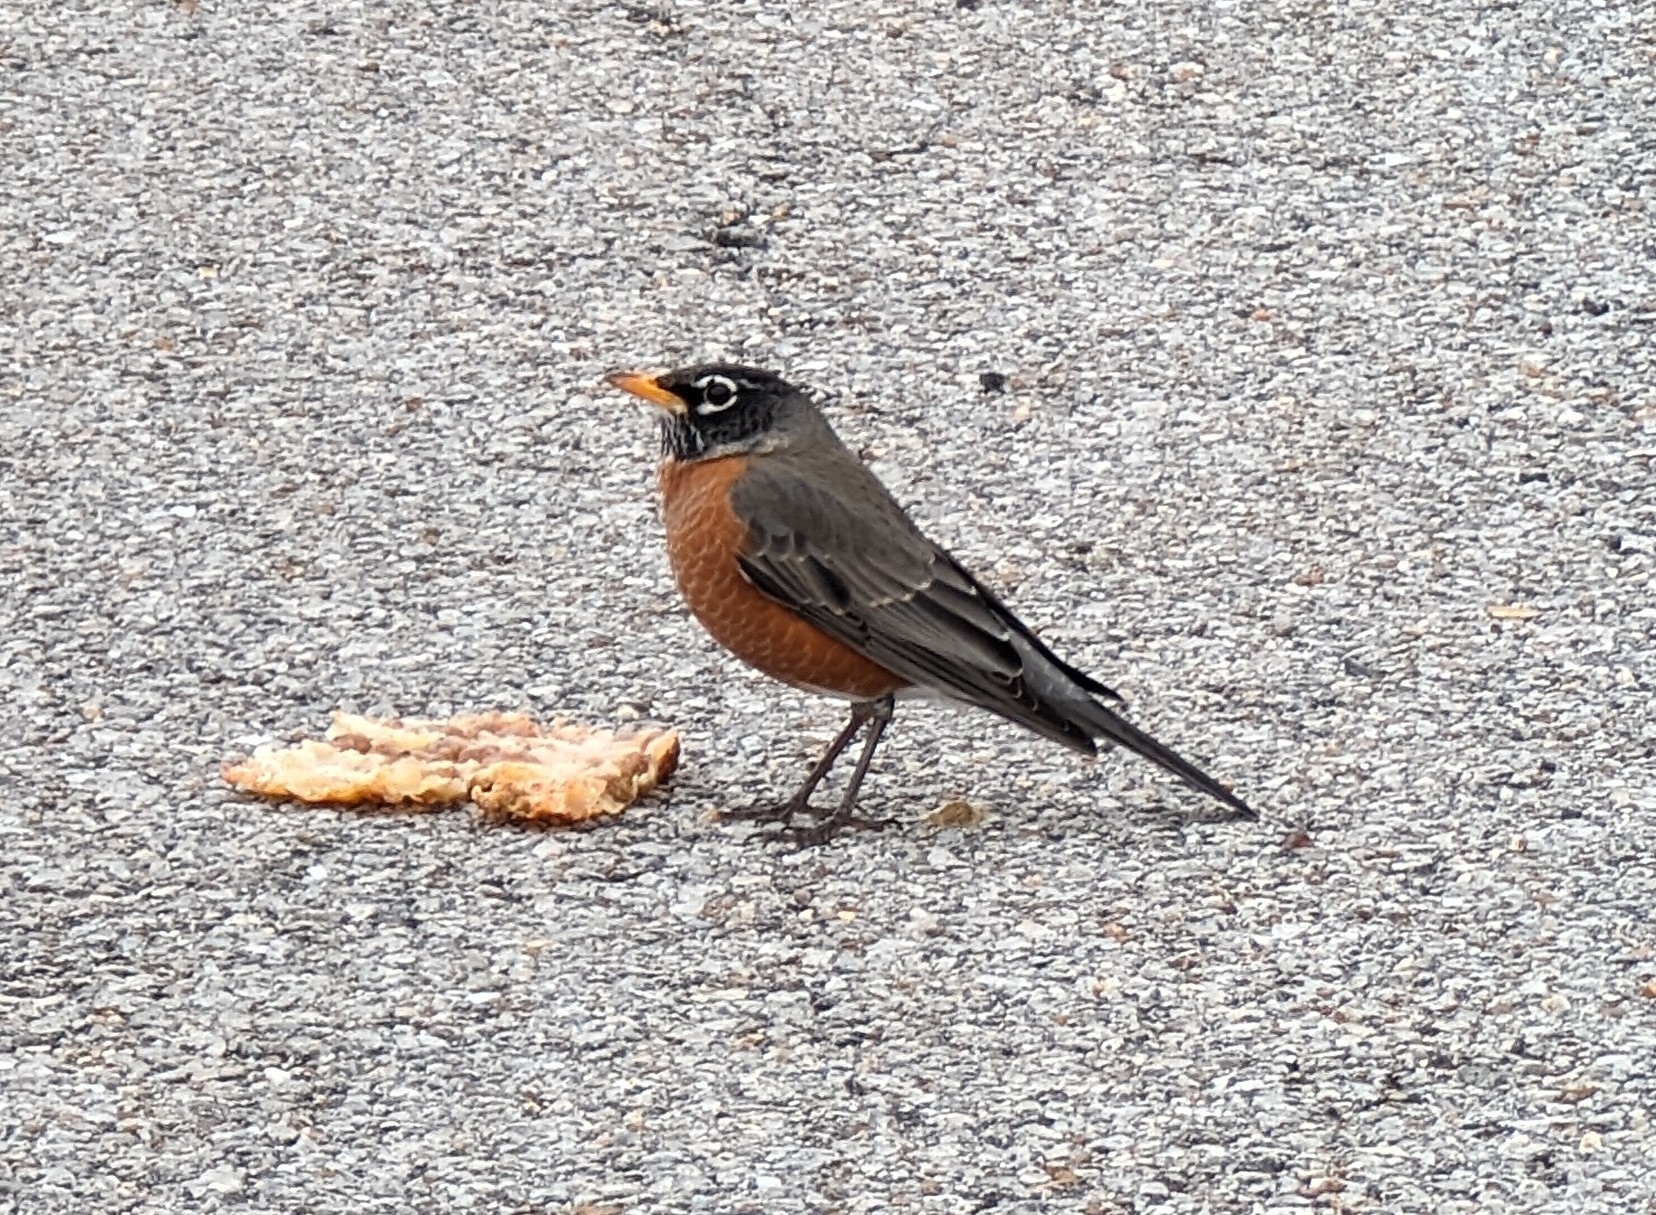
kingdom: Animalia
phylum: Chordata
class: Aves
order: Passeriformes
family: Turdidae
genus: Turdus
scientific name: Turdus migratorius
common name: American robin
